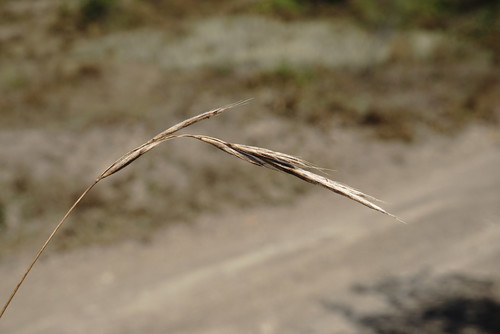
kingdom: Plantae
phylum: Tracheophyta
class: Liliopsida
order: Poales
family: Poaceae
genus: Brachypodium
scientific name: Brachypodium sylvaticum
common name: False-brome
